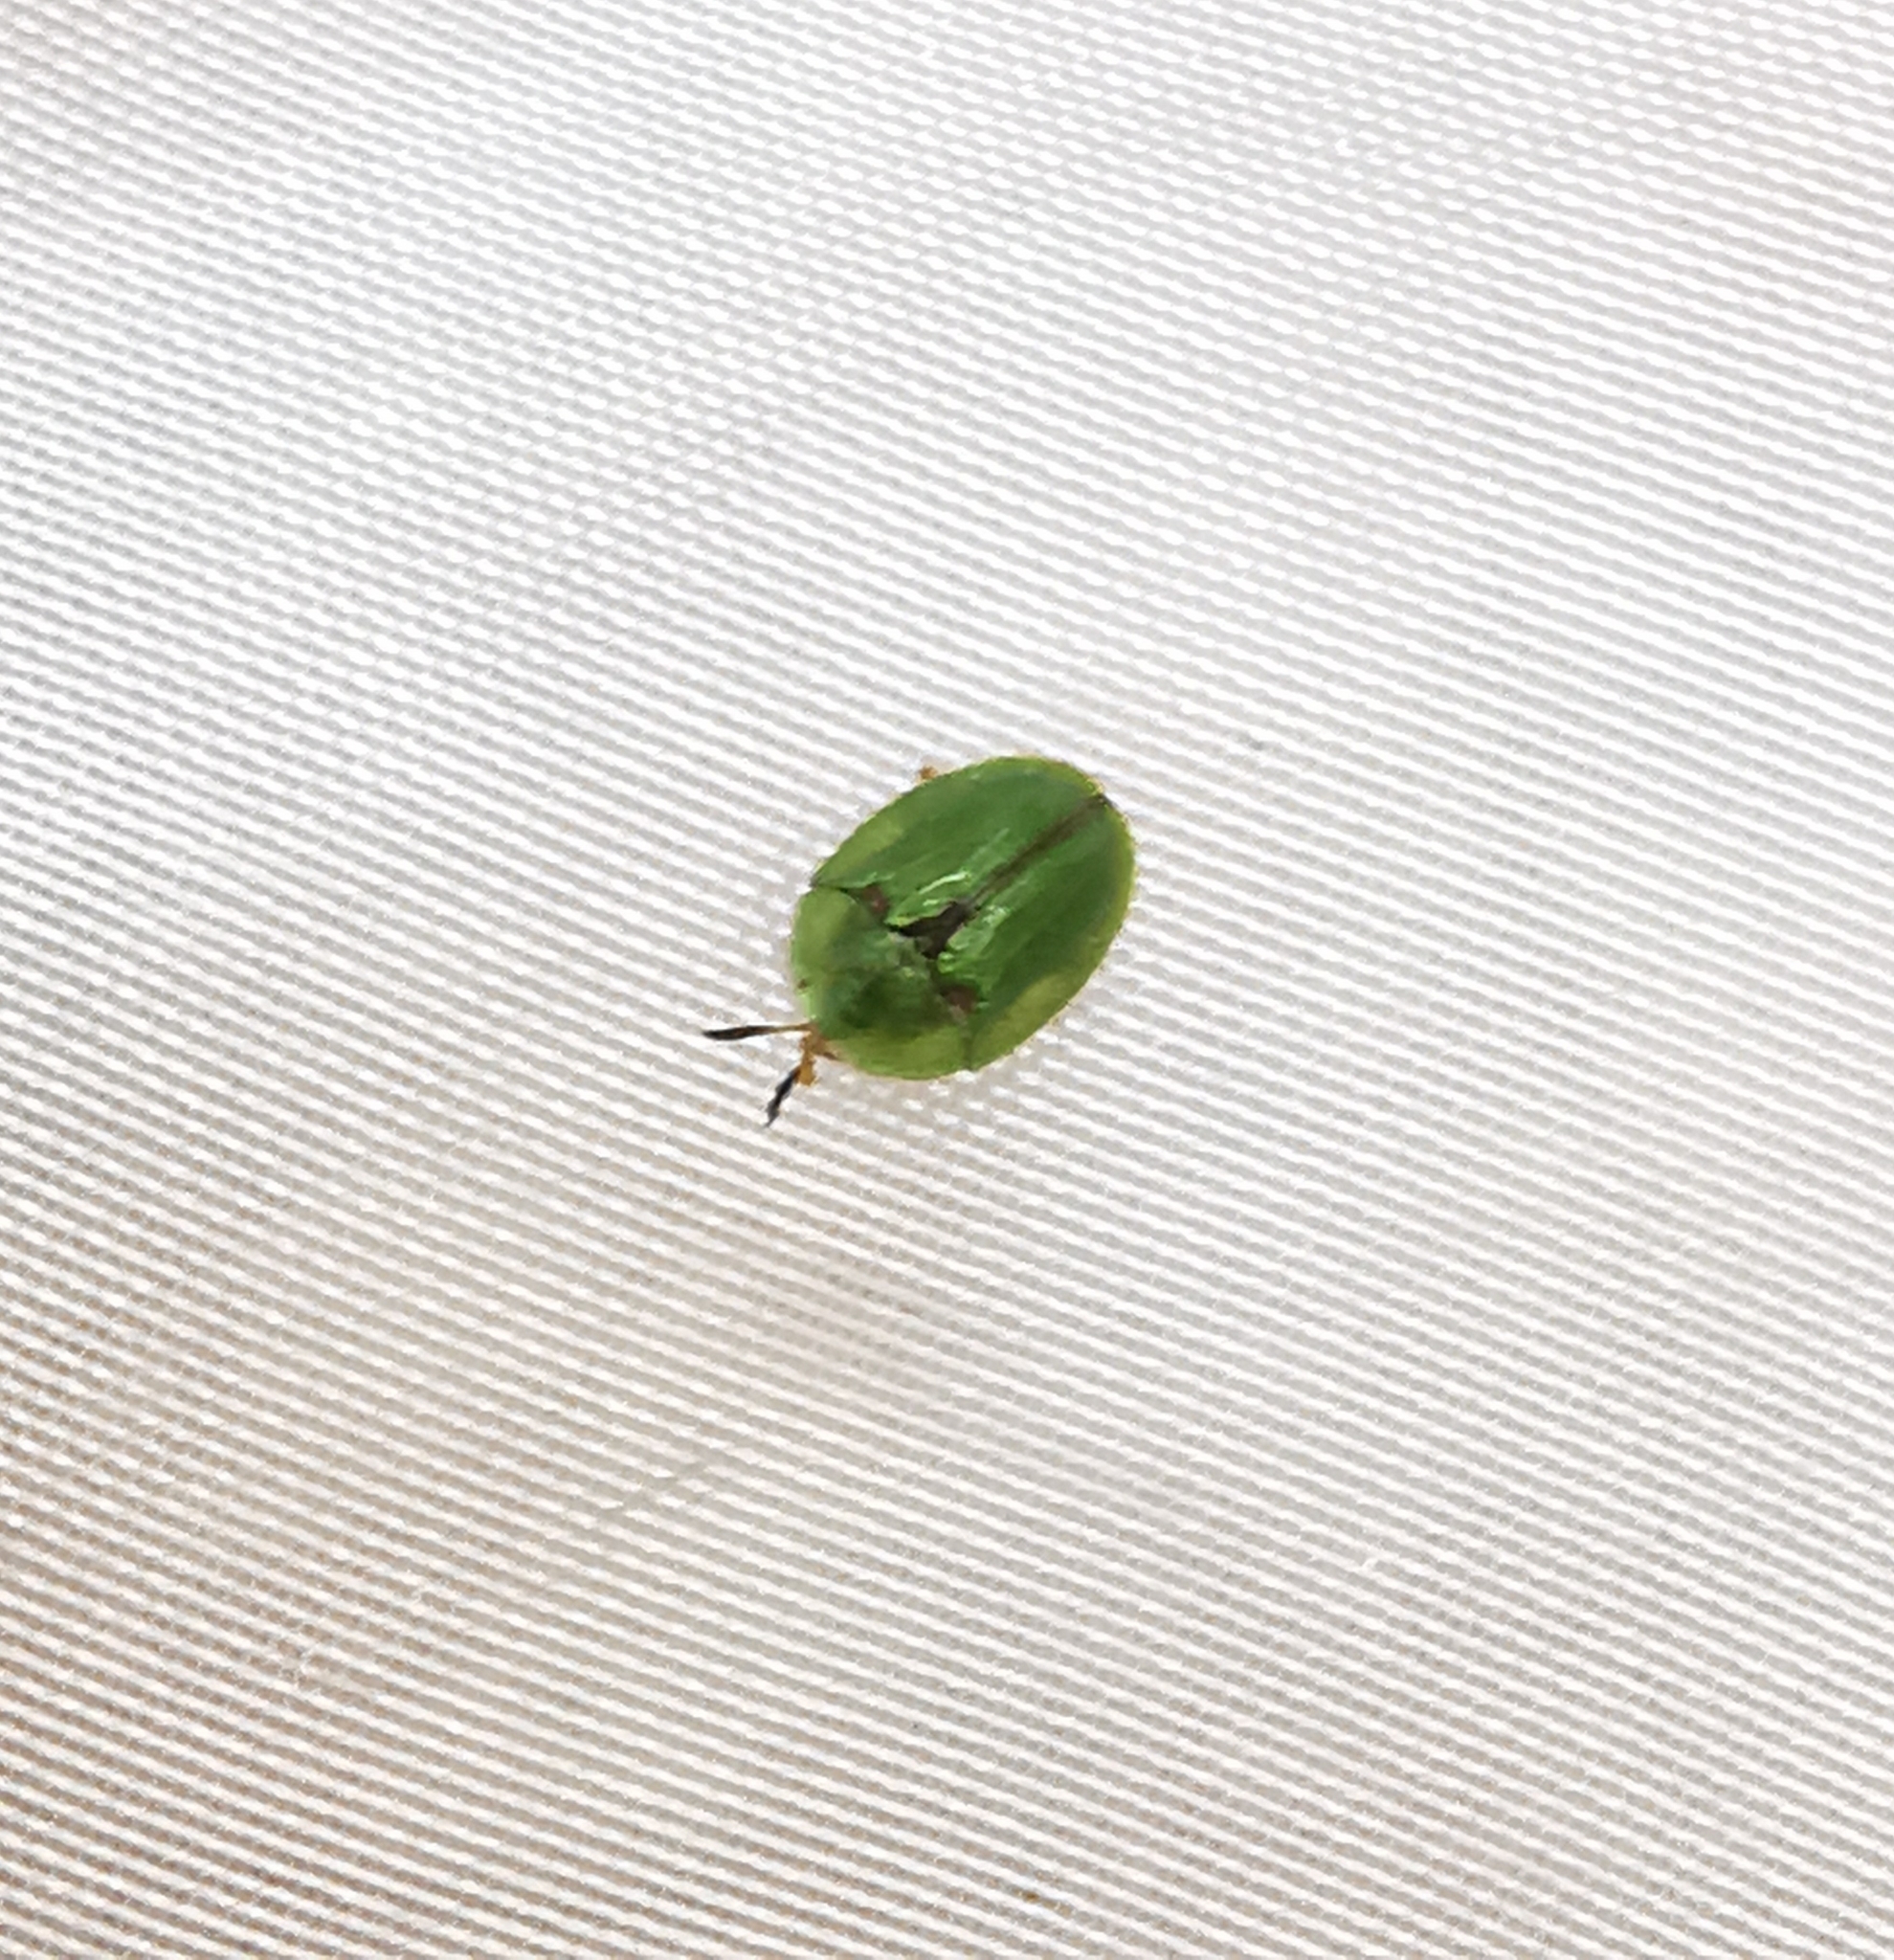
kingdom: Animalia
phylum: Arthropoda
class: Insecta
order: Coleoptera
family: Chrysomelidae
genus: Cassida
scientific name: Cassida stigmatica
